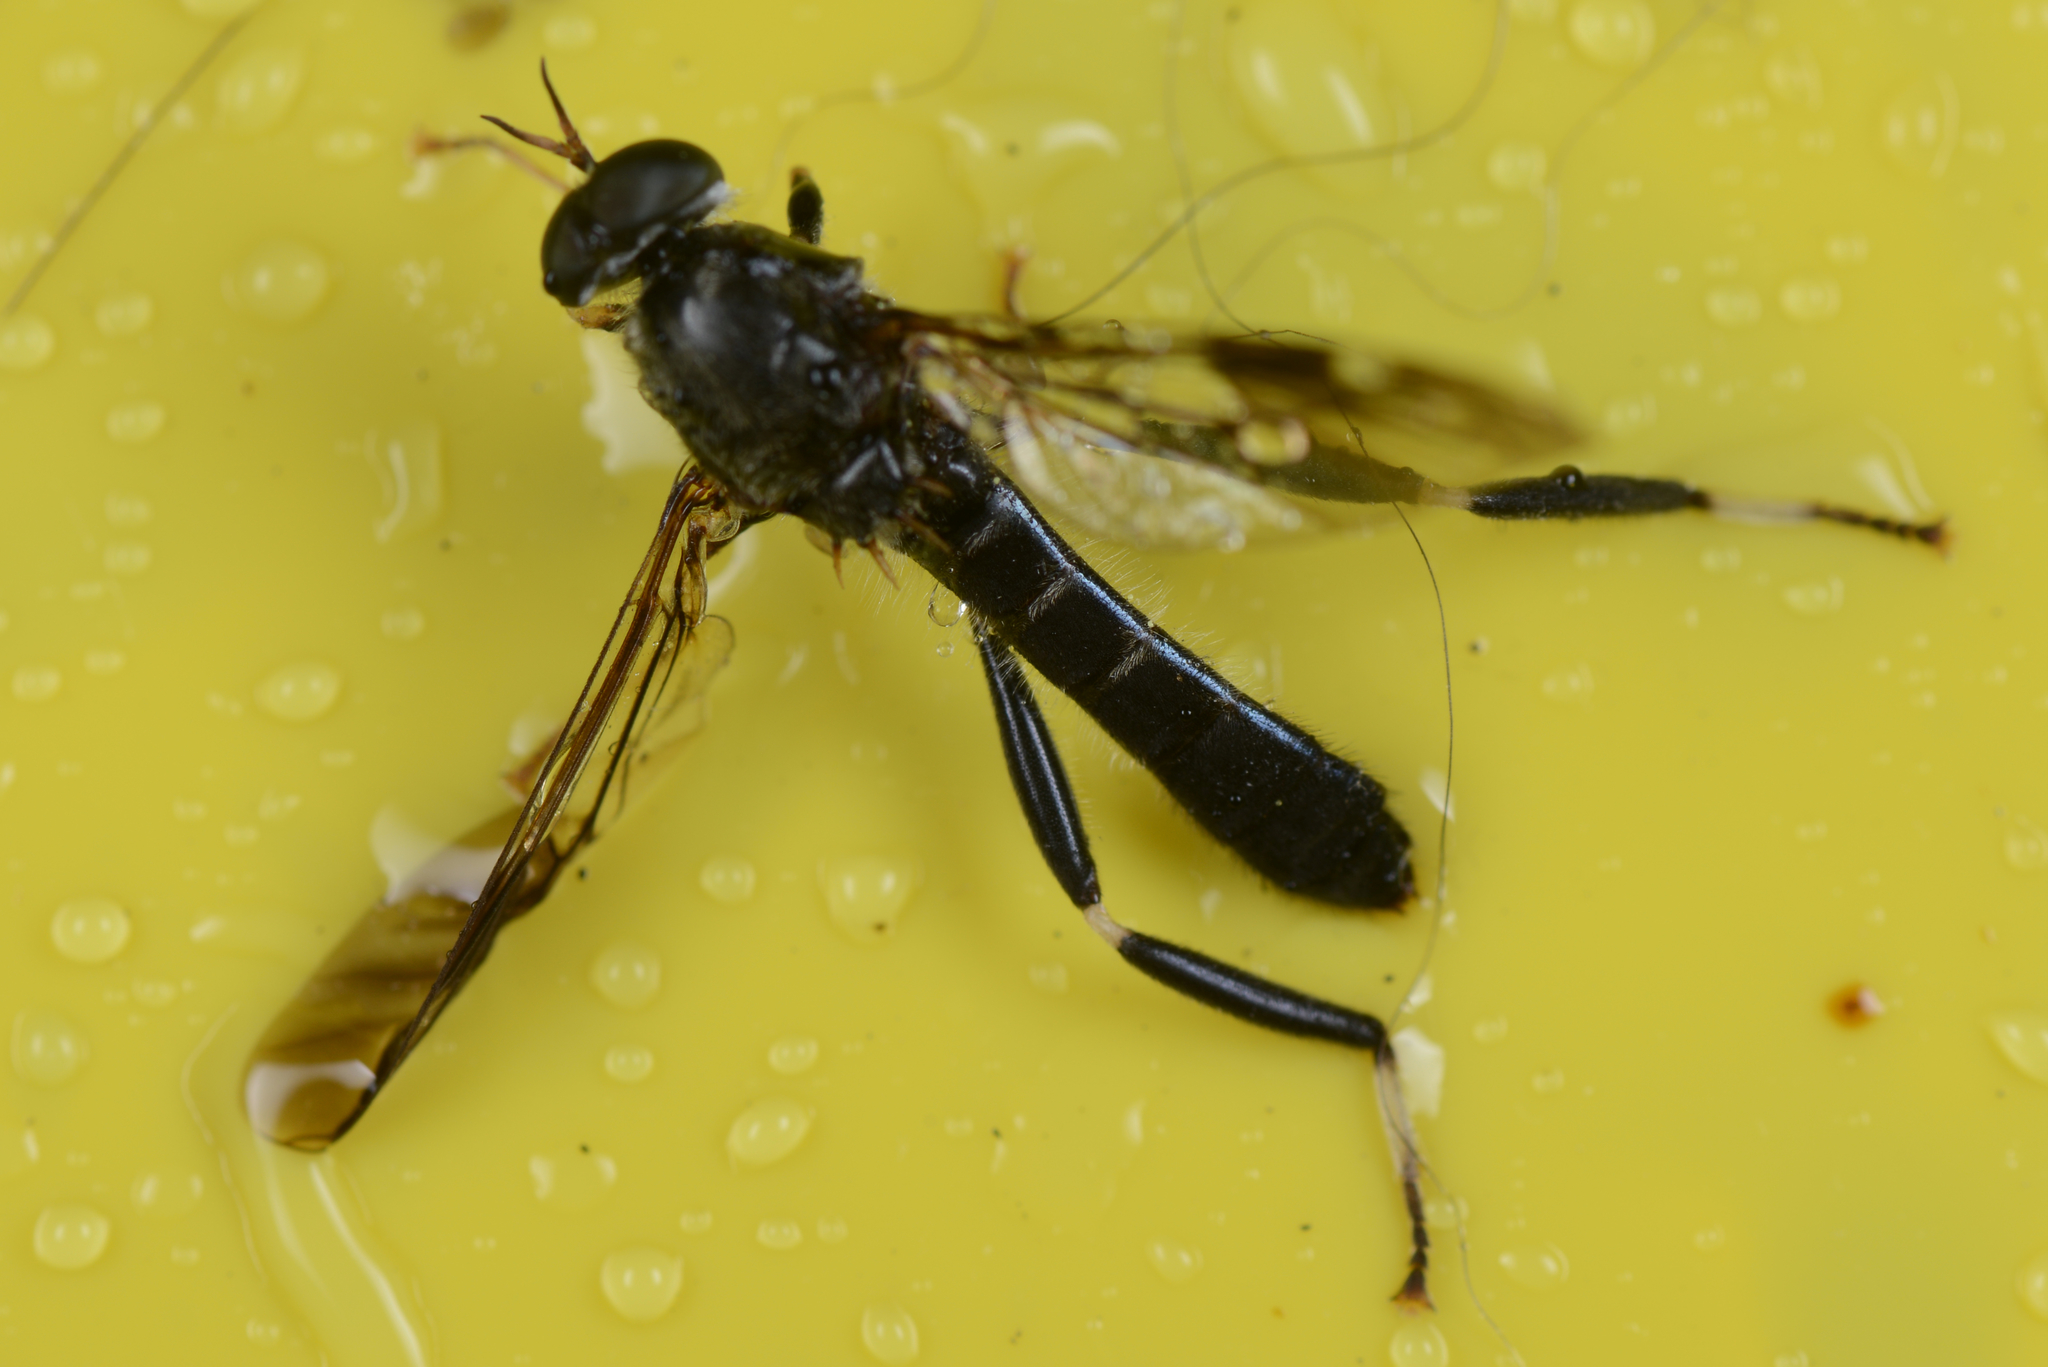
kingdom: Animalia
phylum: Arthropoda
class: Insecta
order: Diptera
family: Stratiomyidae
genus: Exaireta
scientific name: Exaireta spinigera
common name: Blue soldier fly
